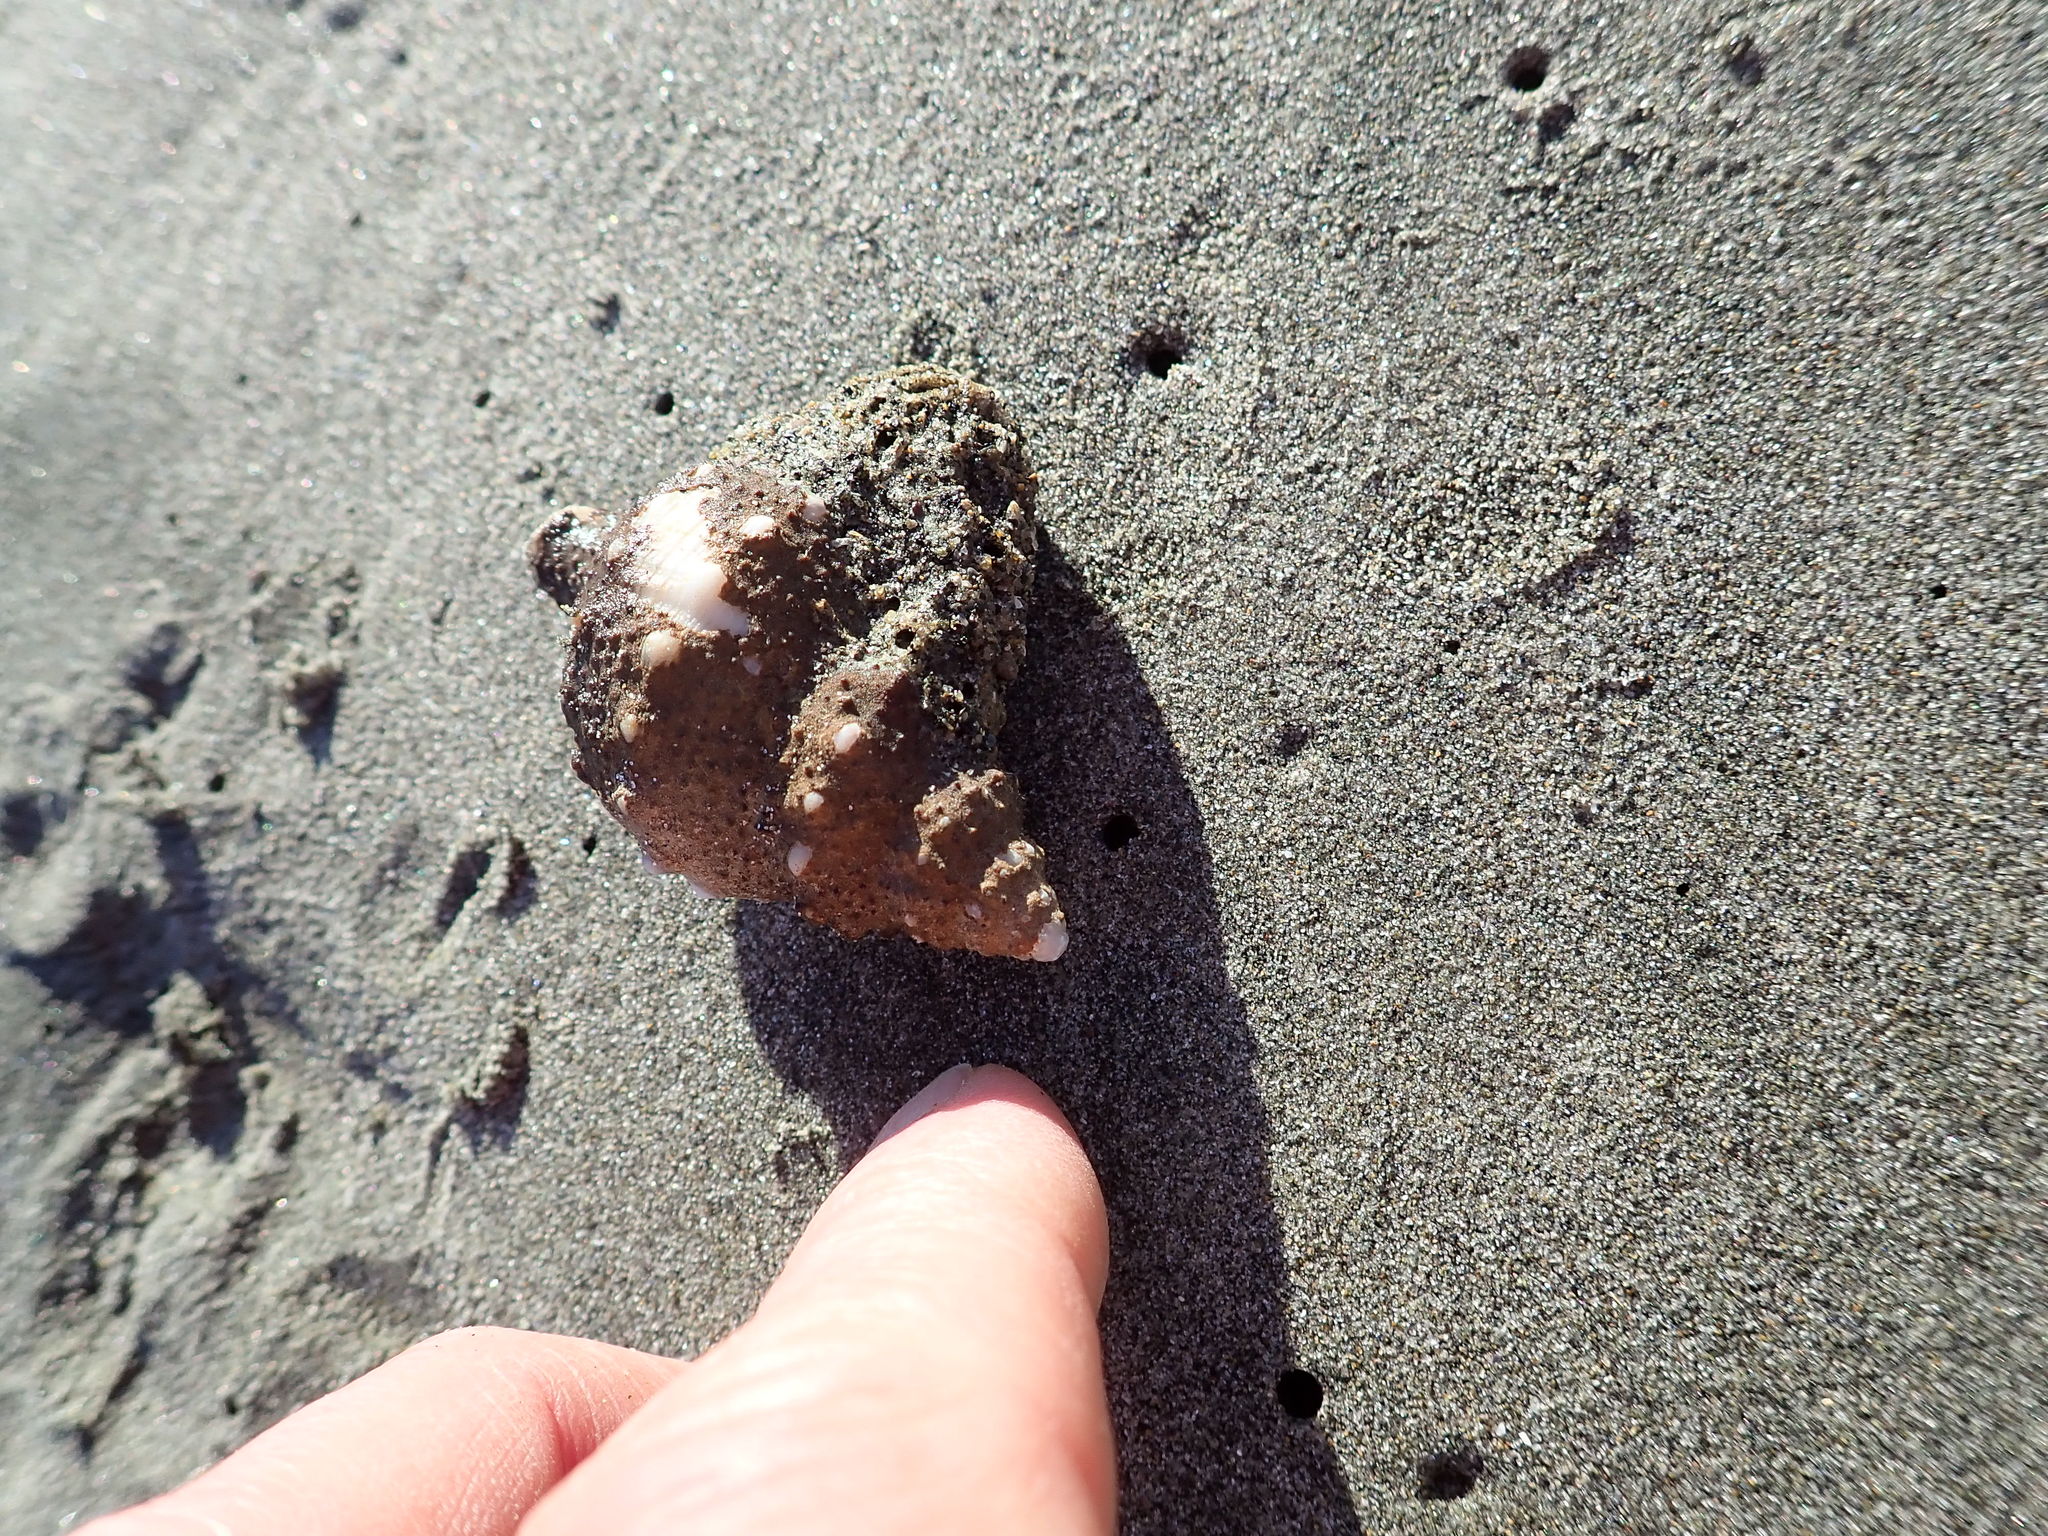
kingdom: Animalia
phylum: Mollusca
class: Gastropoda
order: Neogastropoda
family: Prosiphonidae
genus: Austrofusus
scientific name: Austrofusus glans
